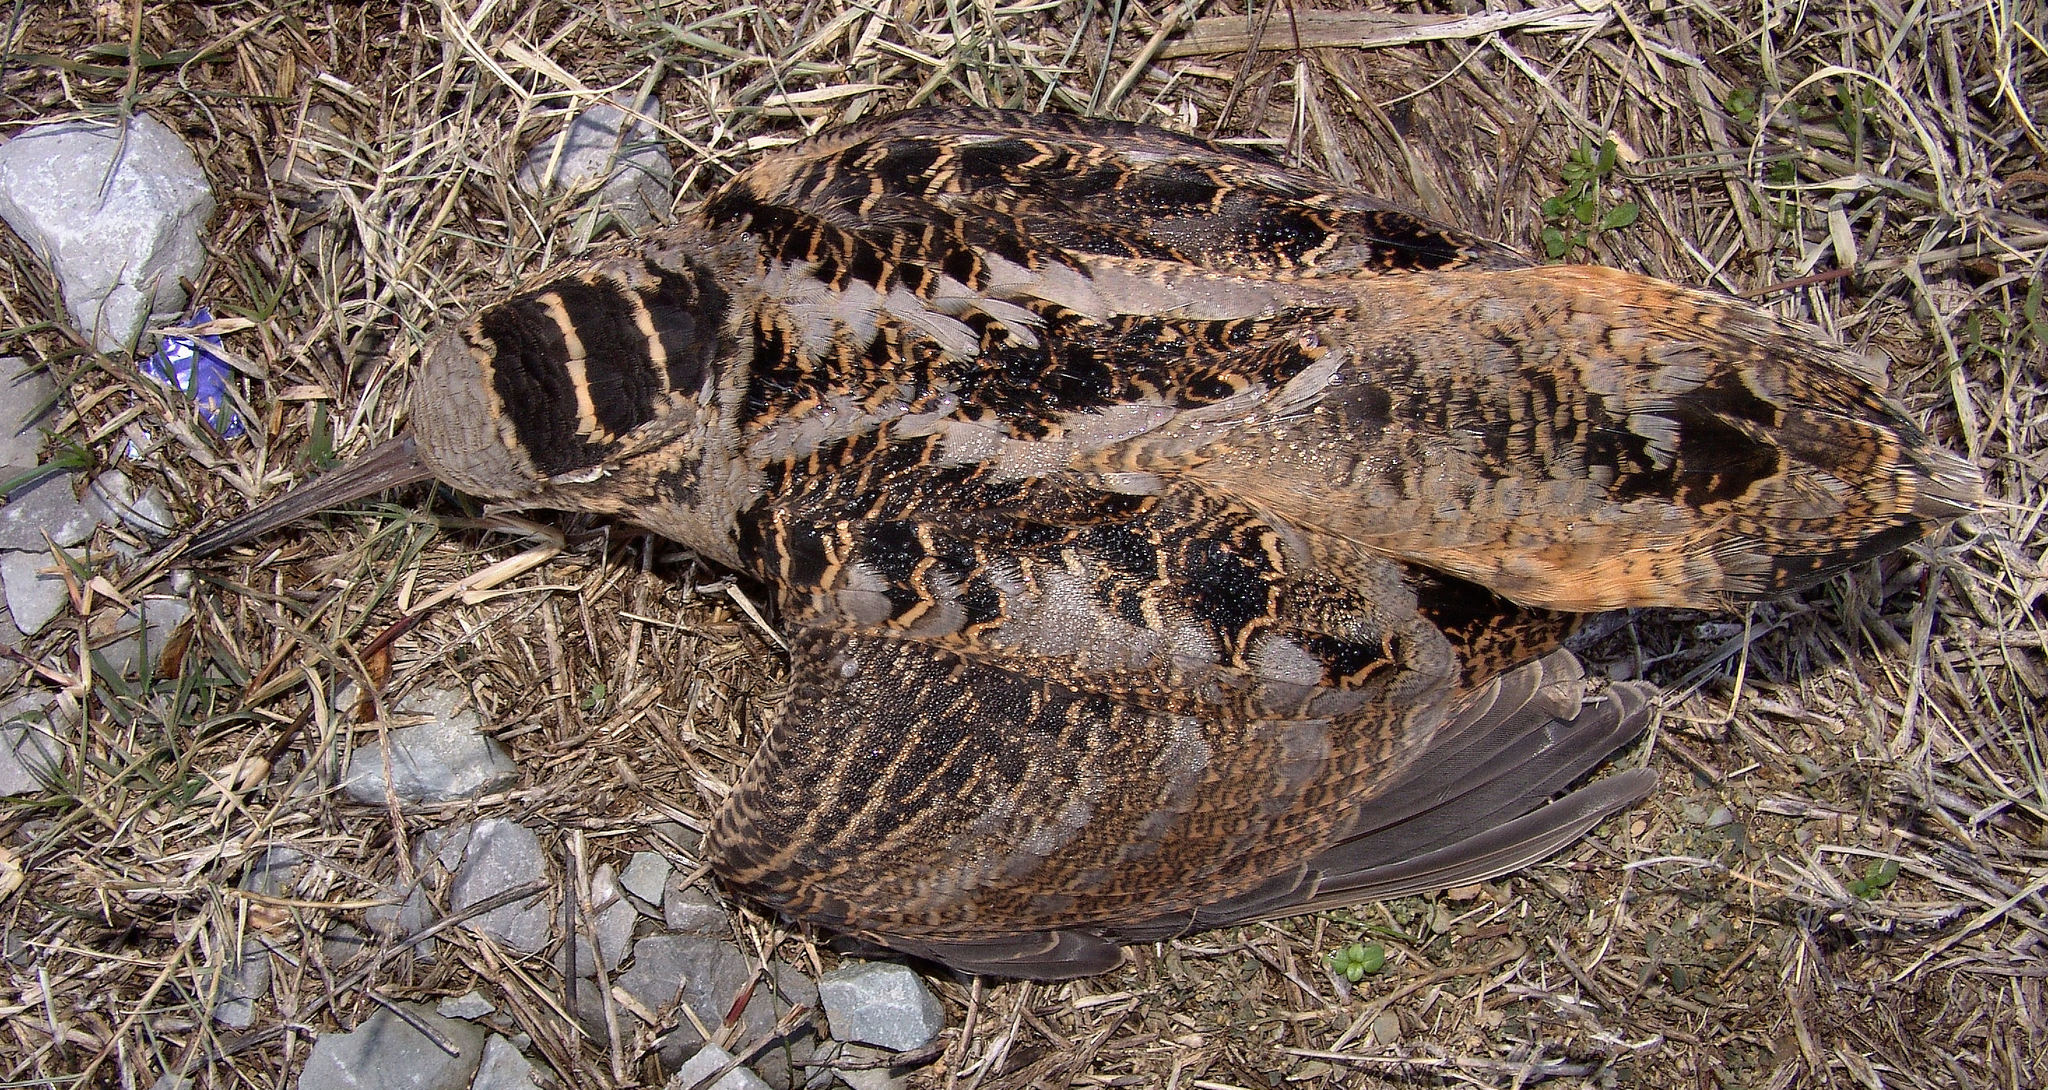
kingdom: Animalia
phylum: Chordata
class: Aves
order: Charadriiformes
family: Scolopacidae
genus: Scolopax
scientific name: Scolopax minor
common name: American woodcock
